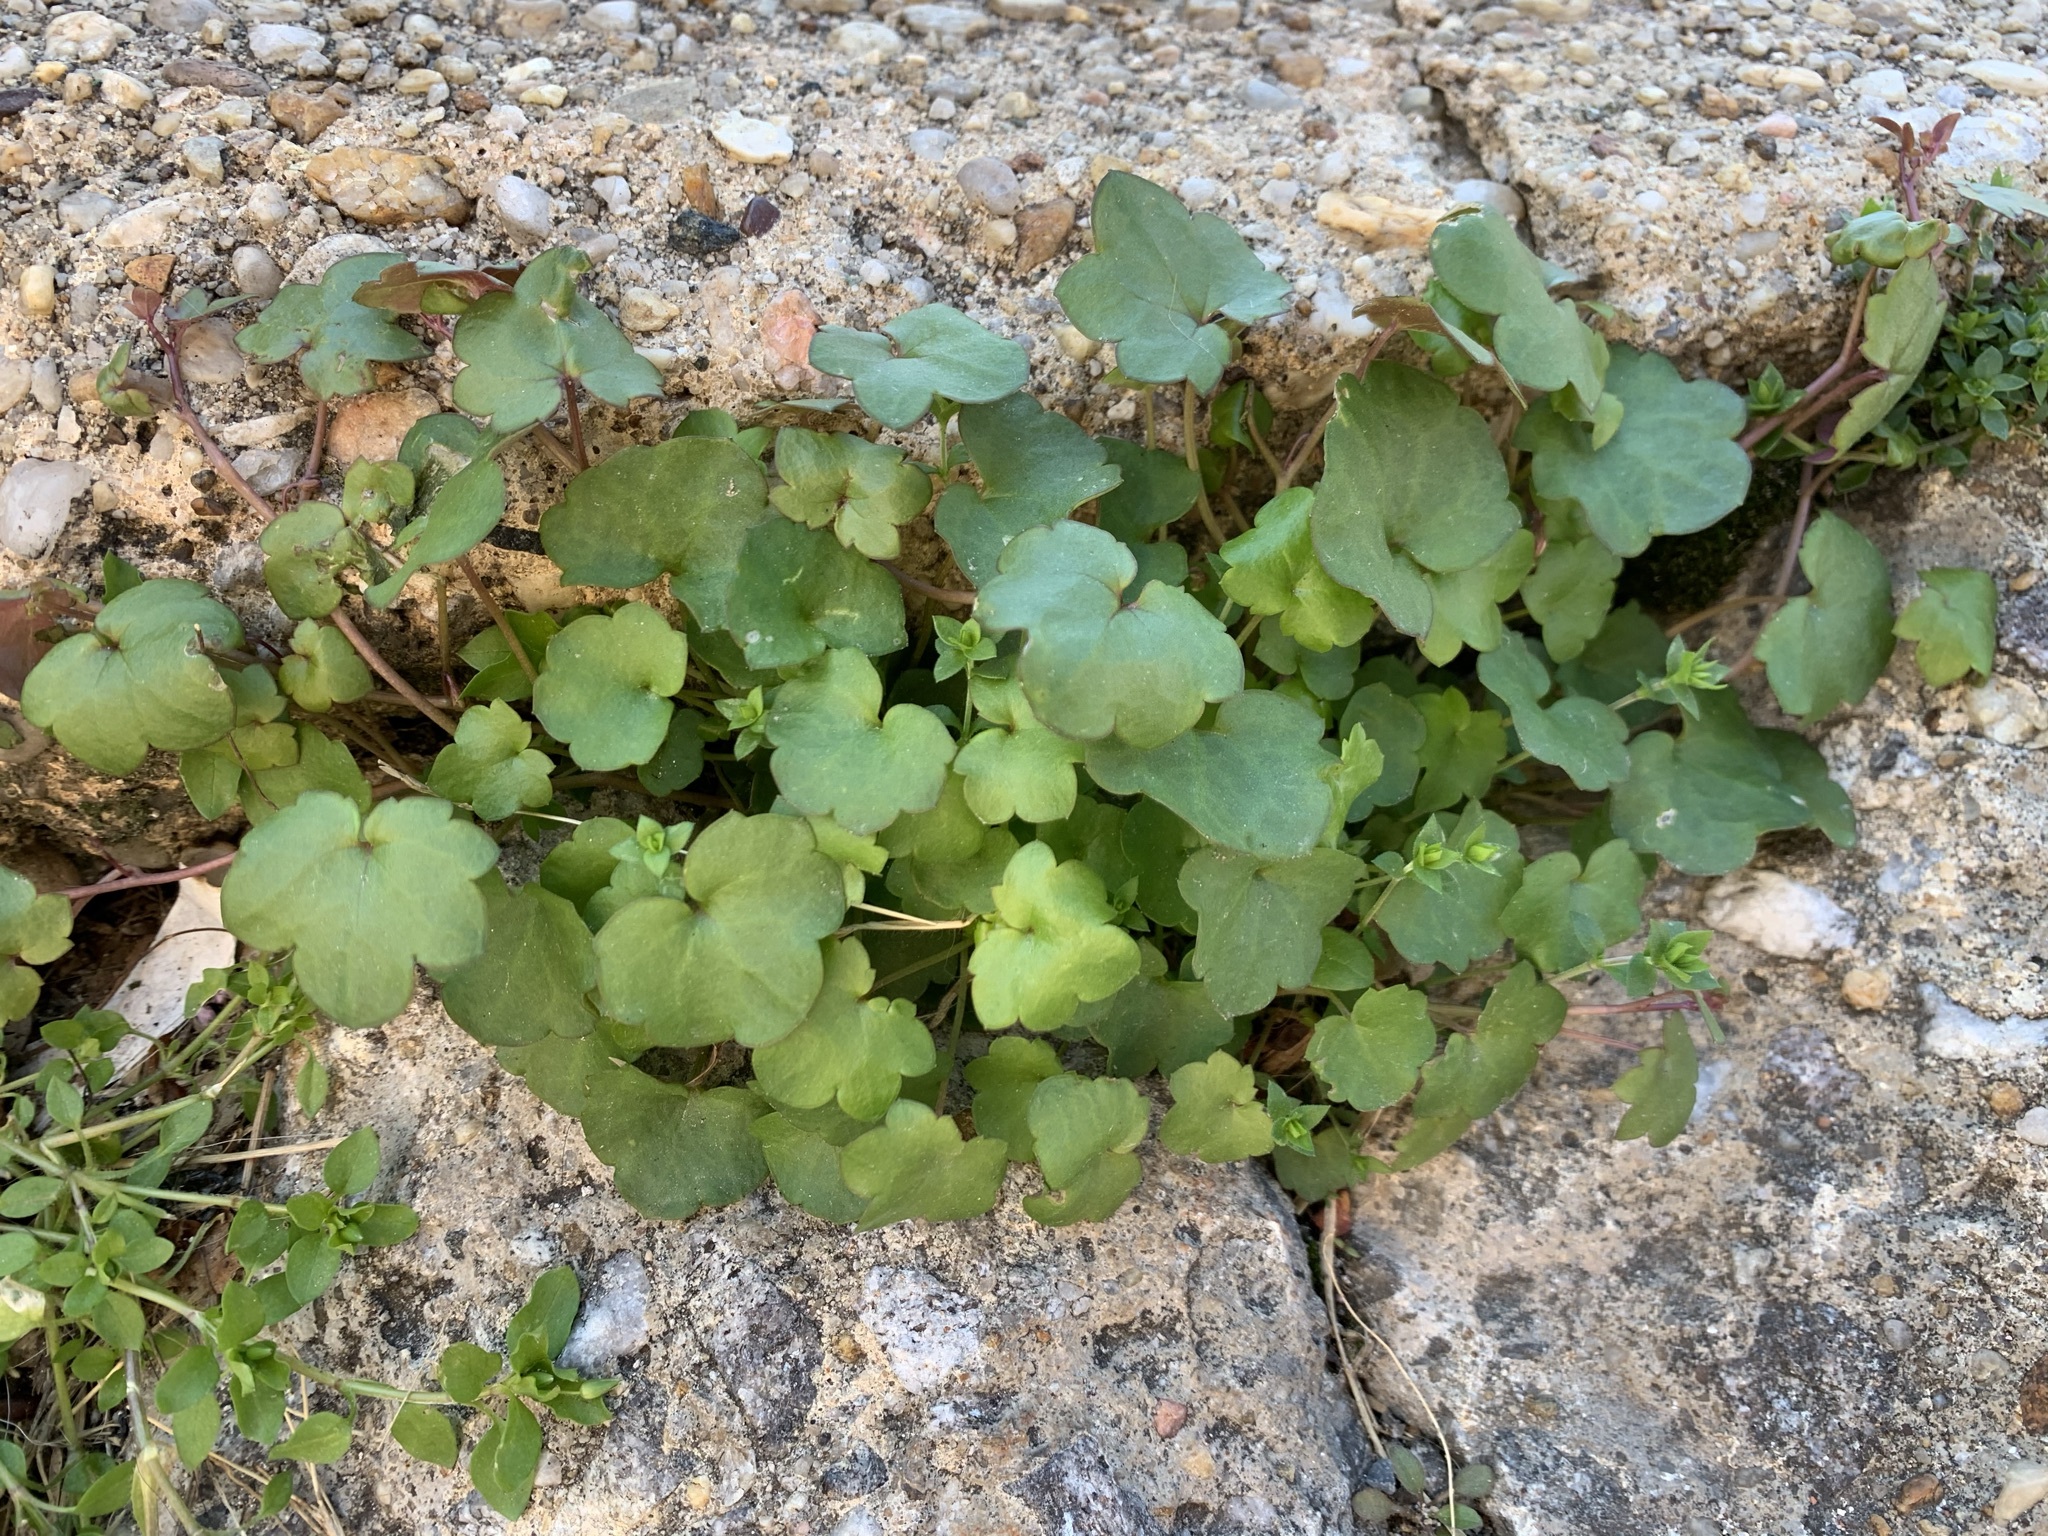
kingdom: Plantae
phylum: Tracheophyta
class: Magnoliopsida
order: Lamiales
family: Plantaginaceae
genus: Cymbalaria
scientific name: Cymbalaria muralis
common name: Ivy-leaved toadflax
